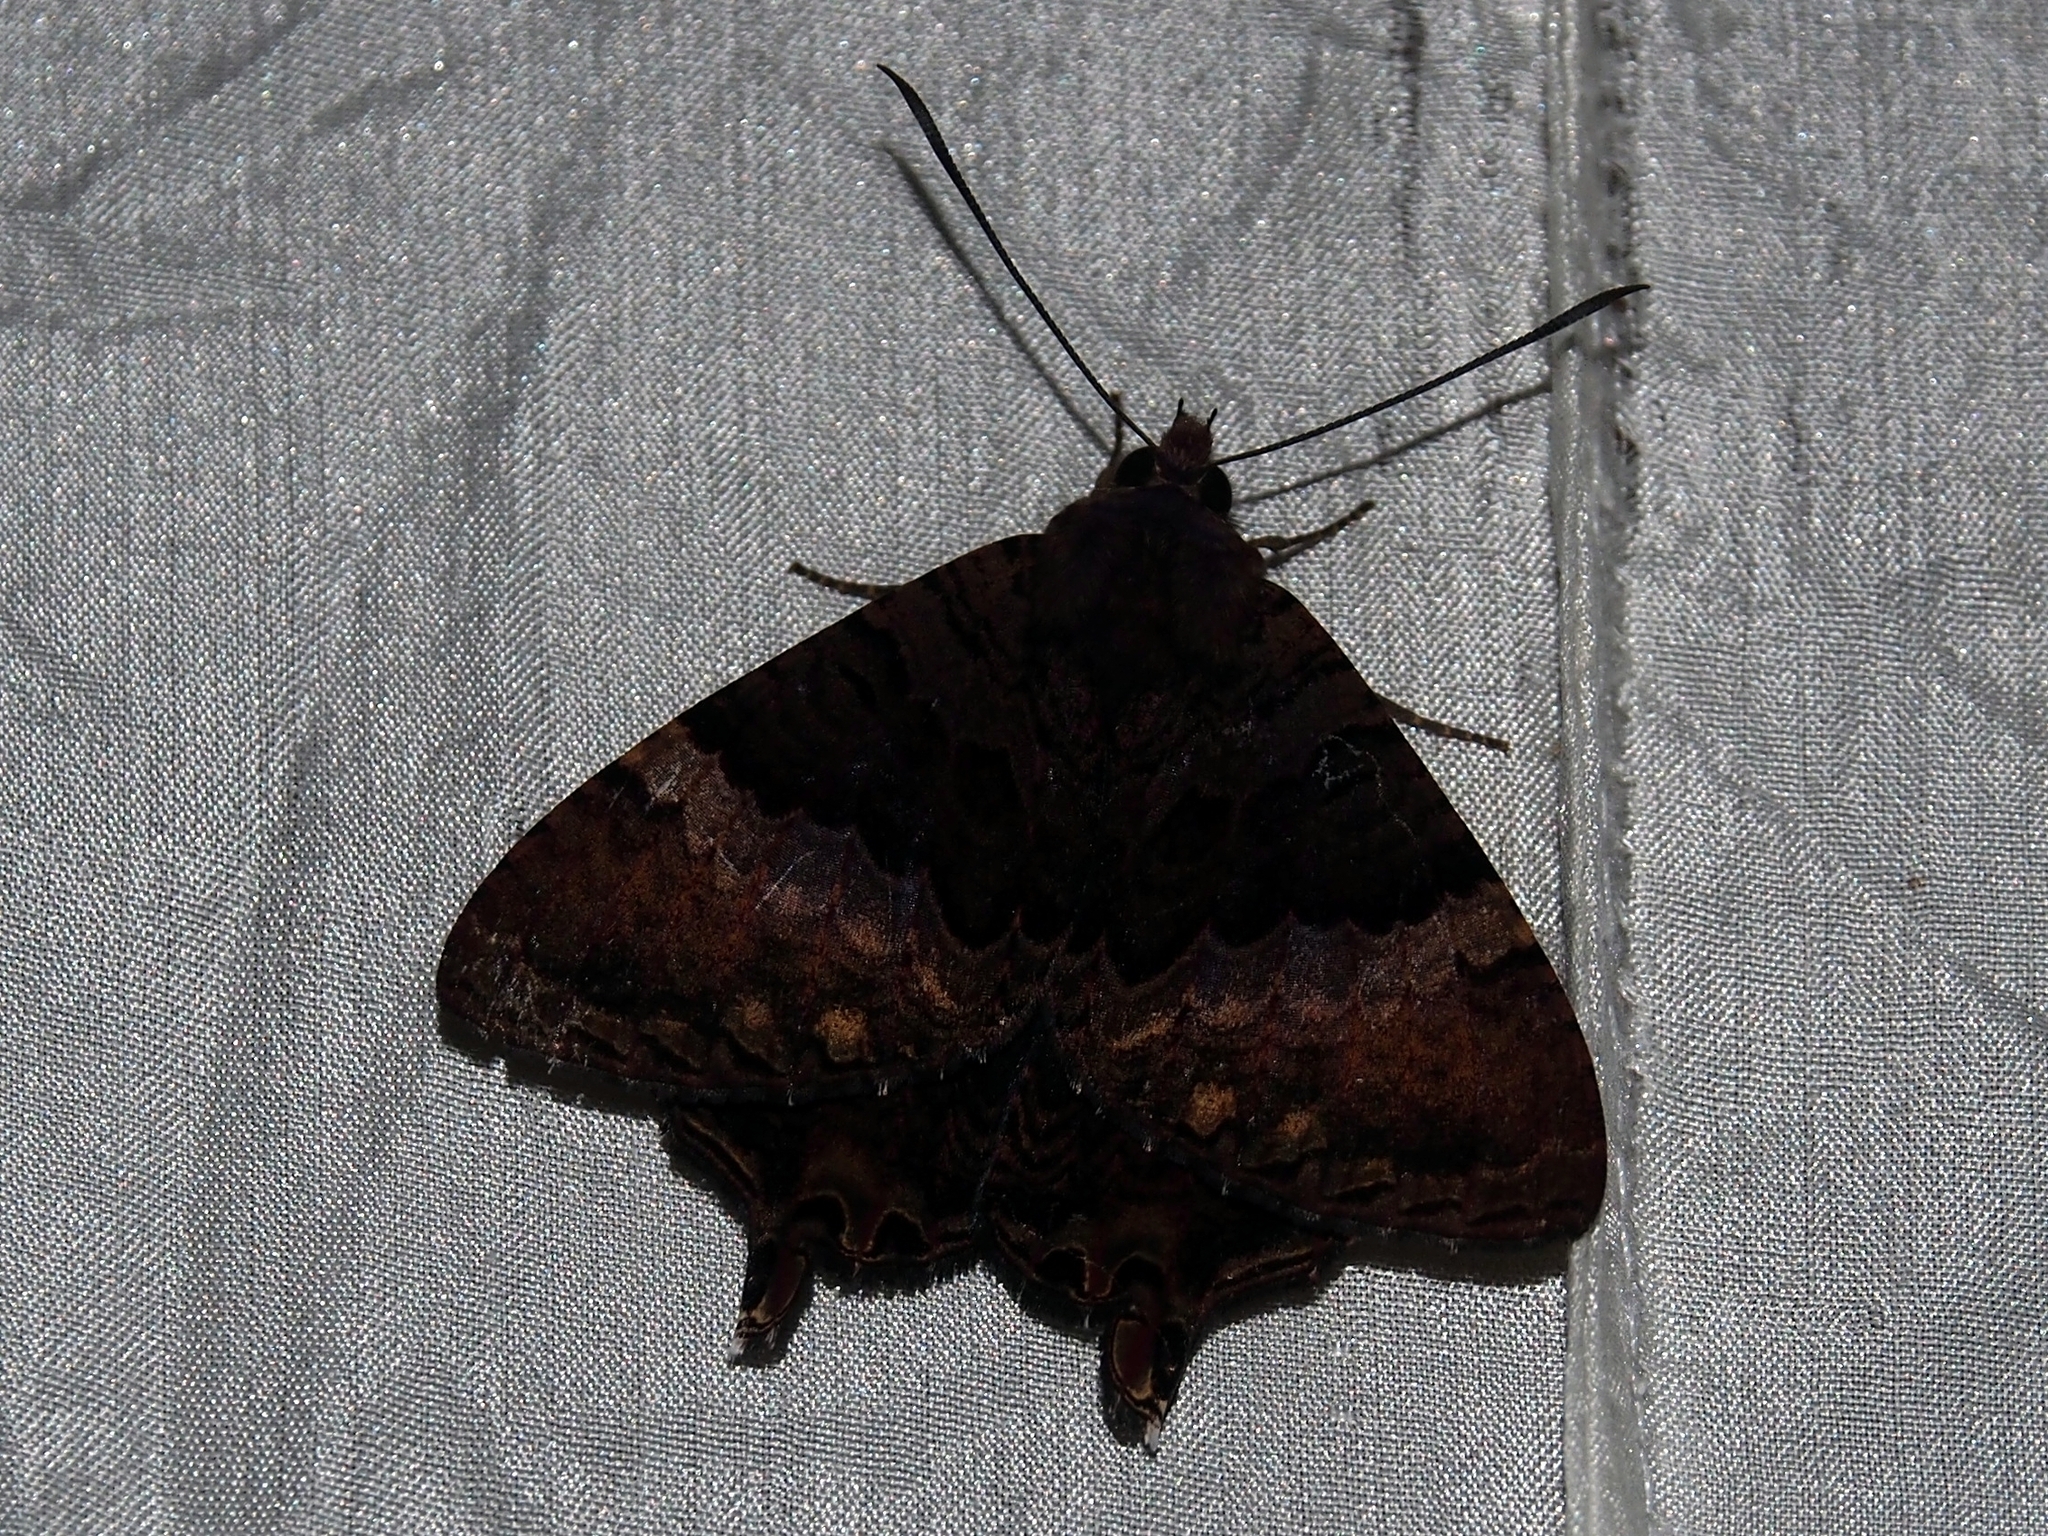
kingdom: Animalia
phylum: Arthropoda
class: Insecta
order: Lepidoptera
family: Sematuridae
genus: Coronidia
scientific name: Coronidia subpicta
